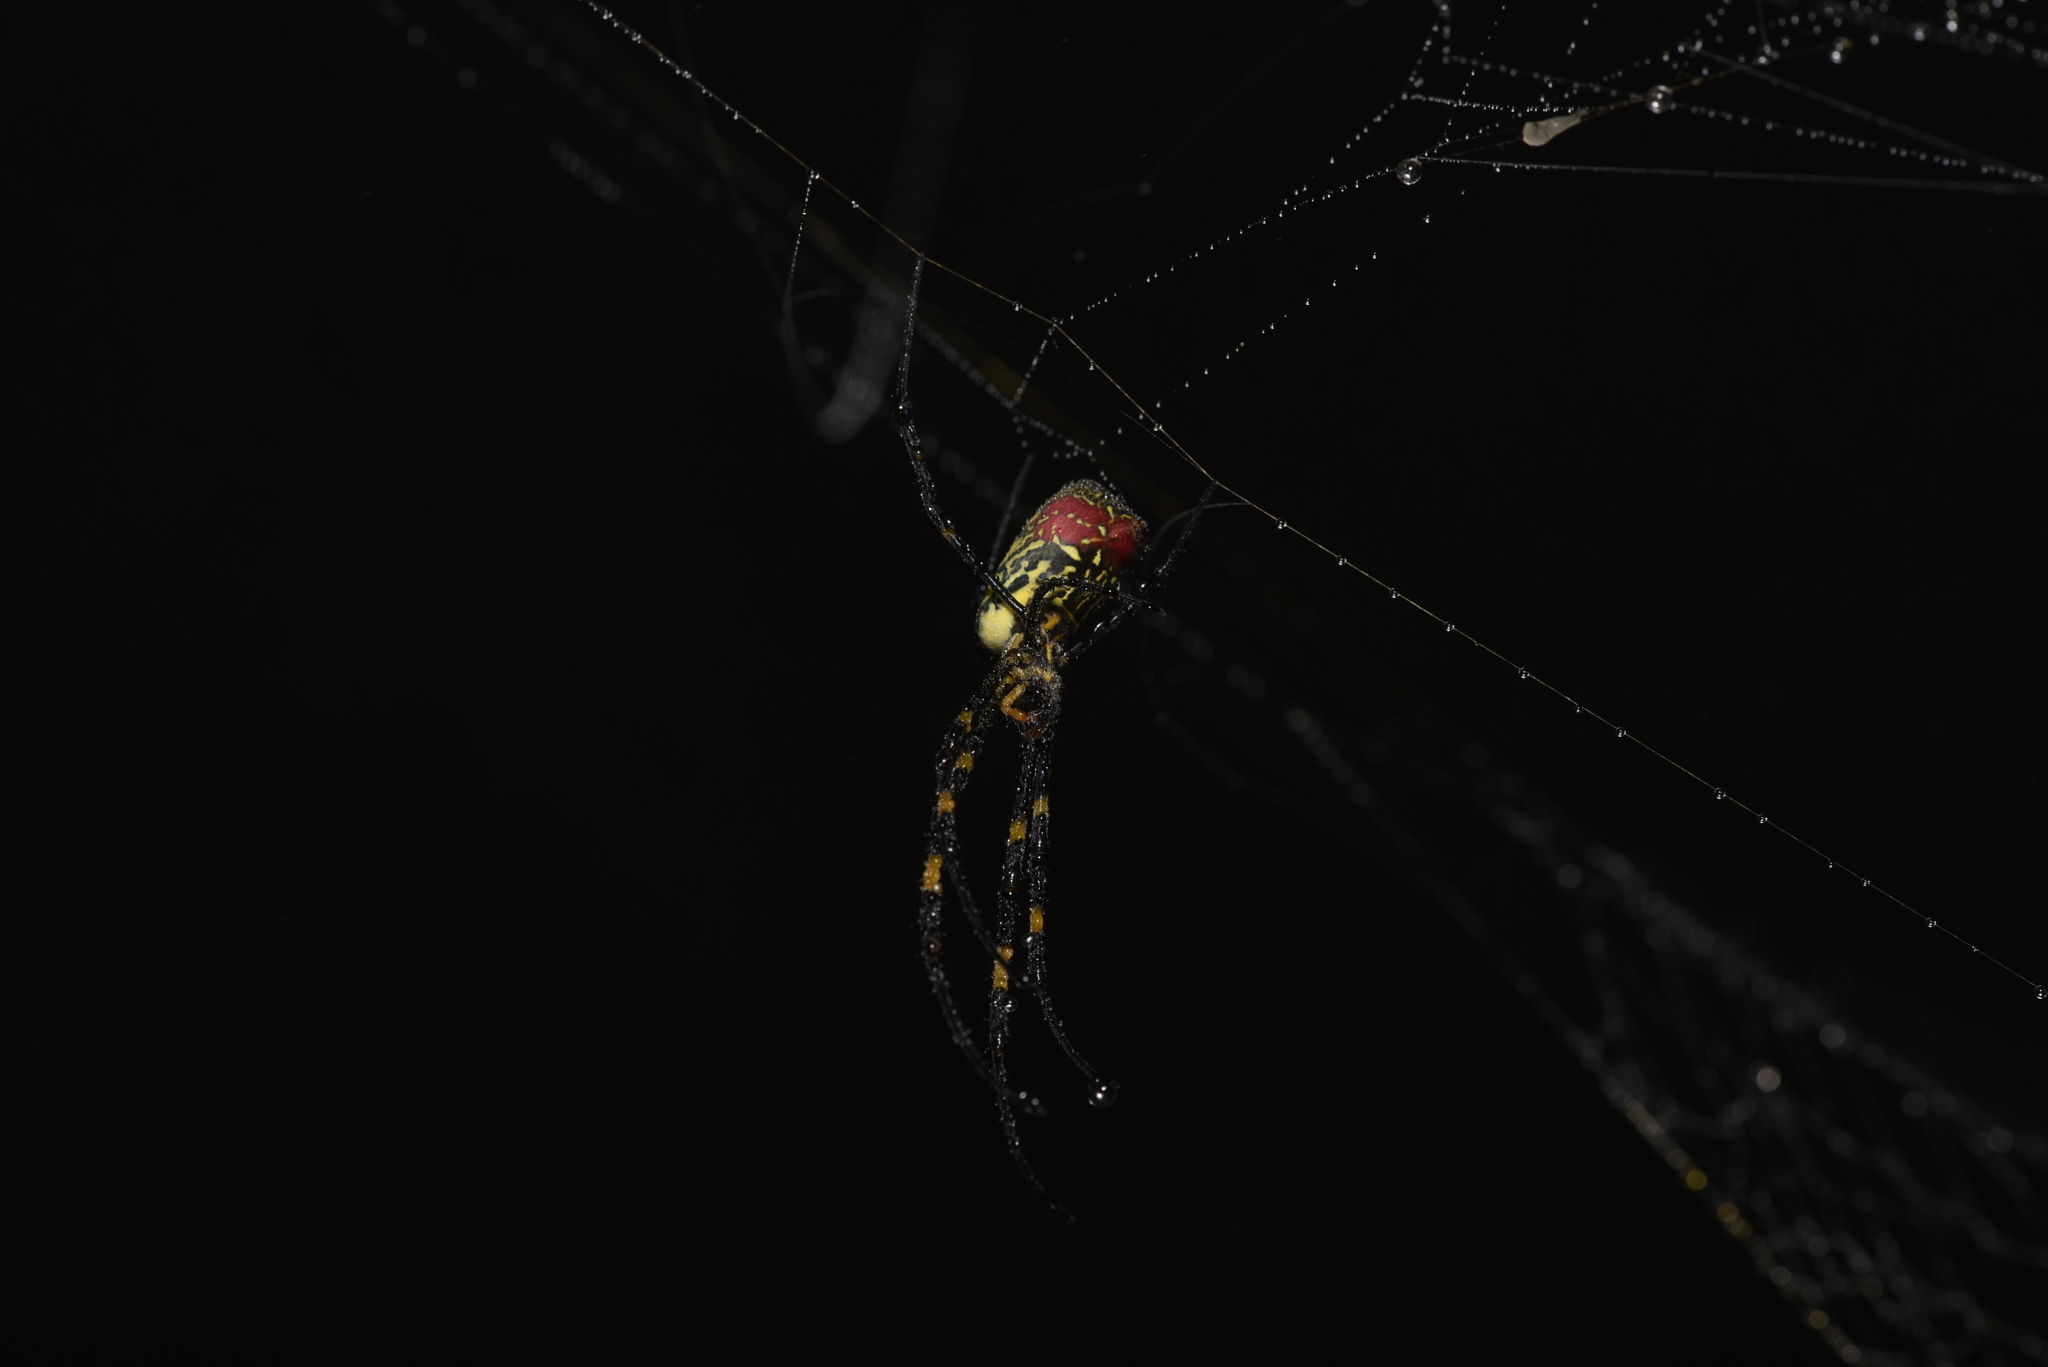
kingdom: Animalia
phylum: Arthropoda
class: Arachnida
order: Araneae
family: Araneidae
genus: Trichonephila
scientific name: Trichonephila clavata
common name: Jorō spider
